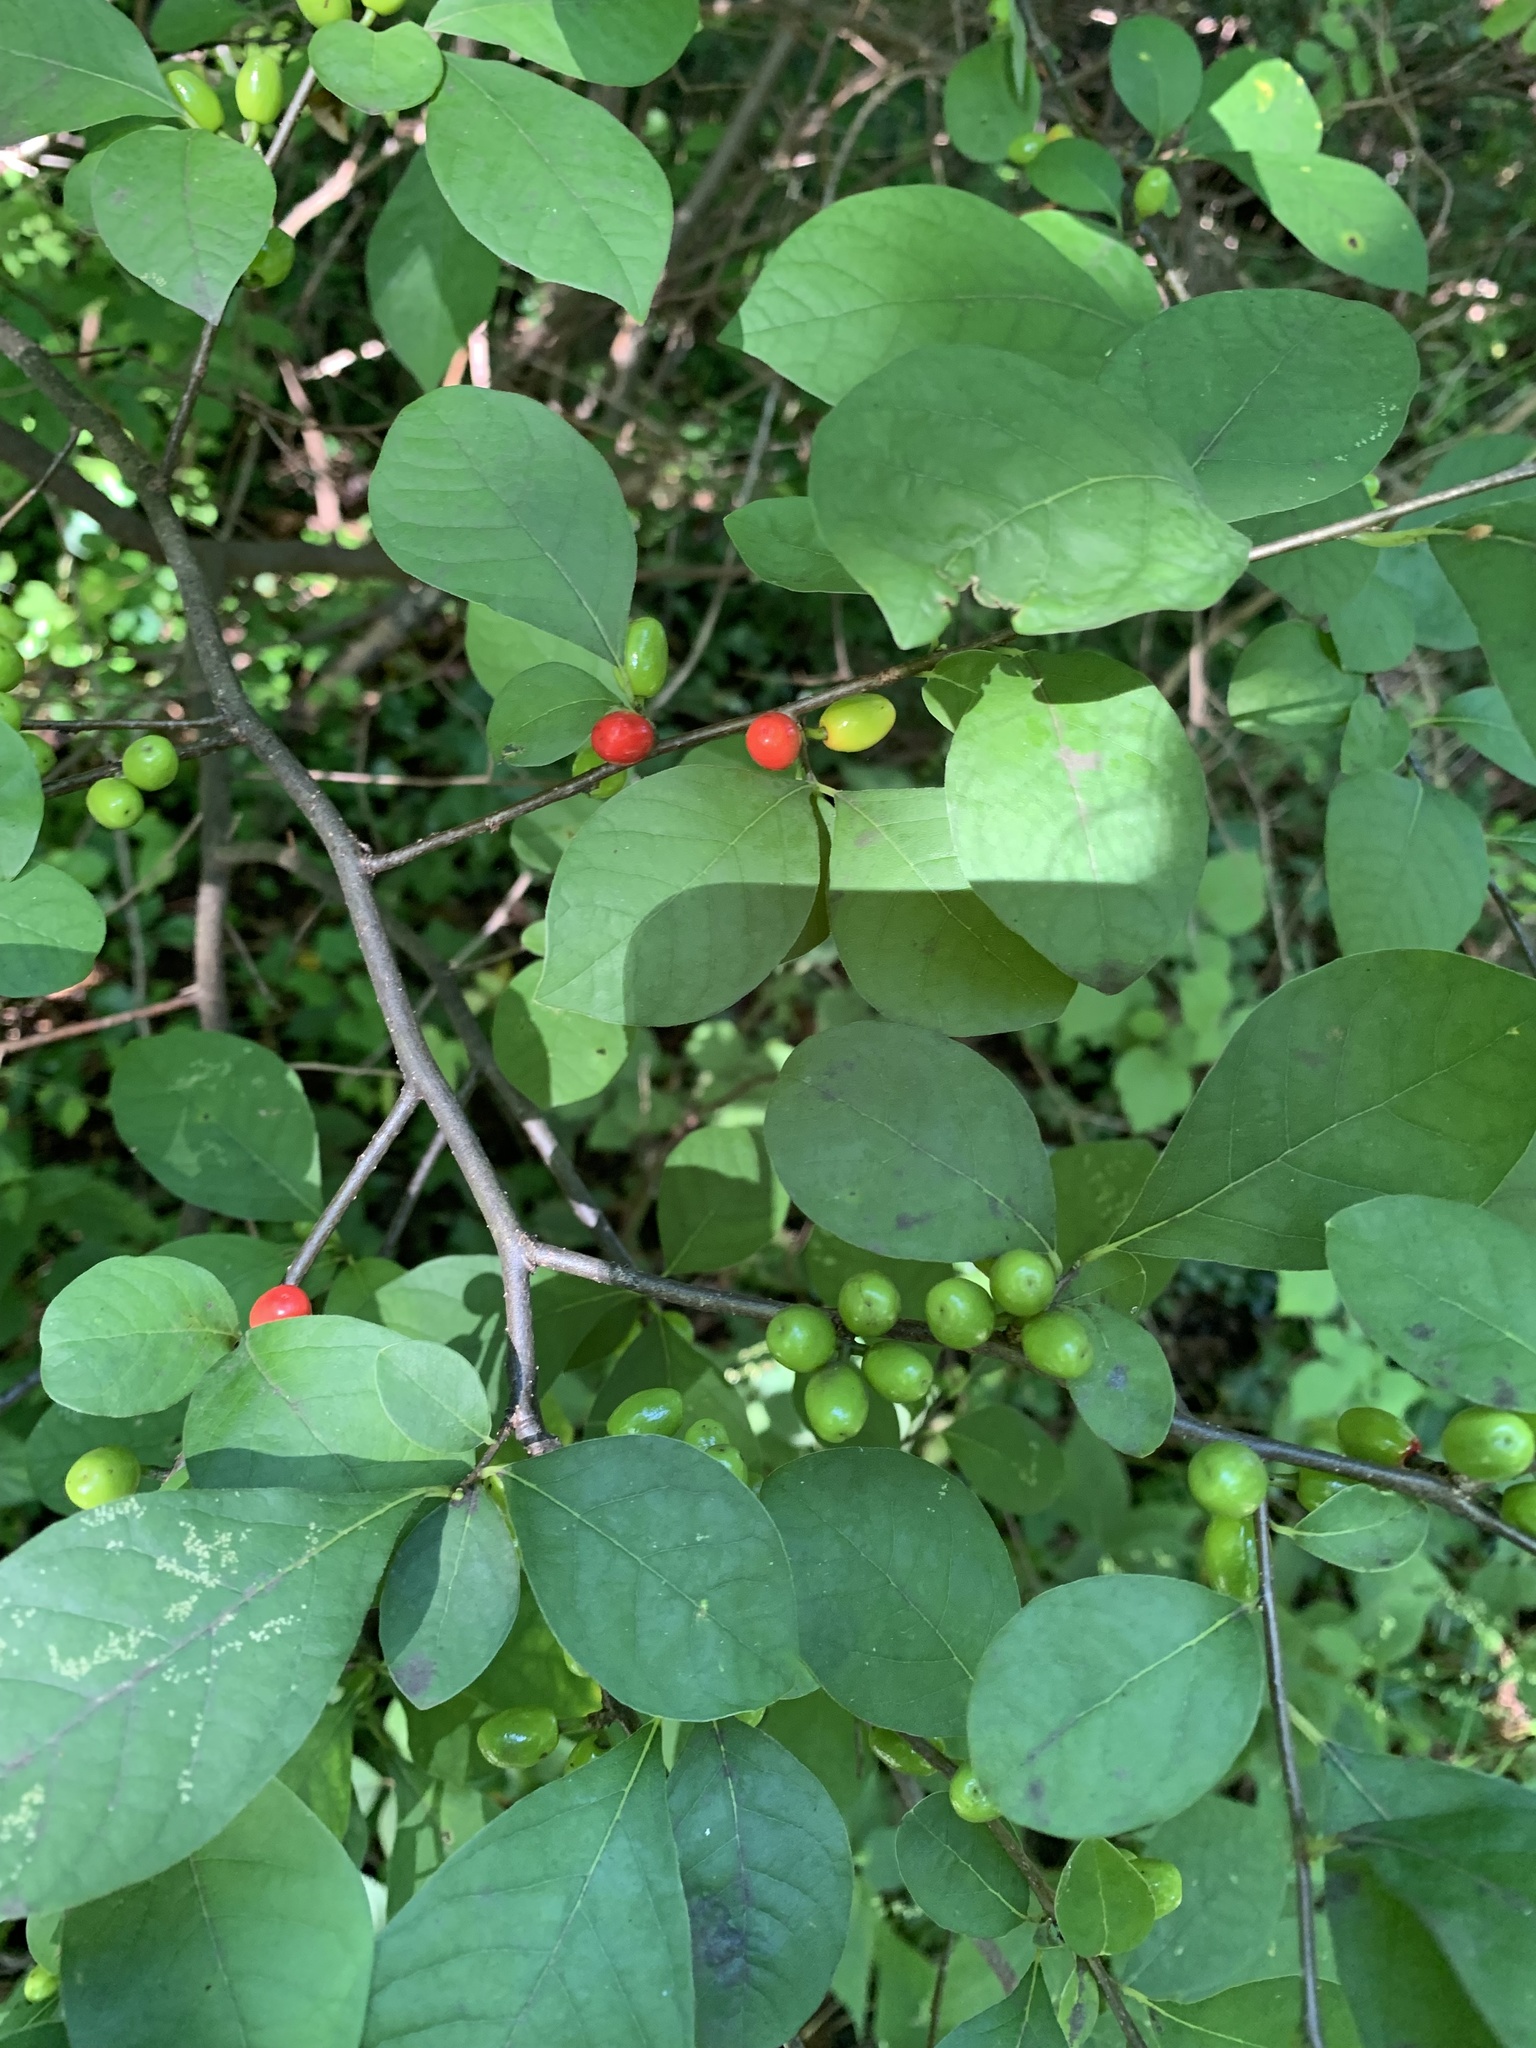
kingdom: Plantae
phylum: Tracheophyta
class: Magnoliopsida
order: Laurales
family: Lauraceae
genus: Lindera
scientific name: Lindera benzoin
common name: Spicebush
